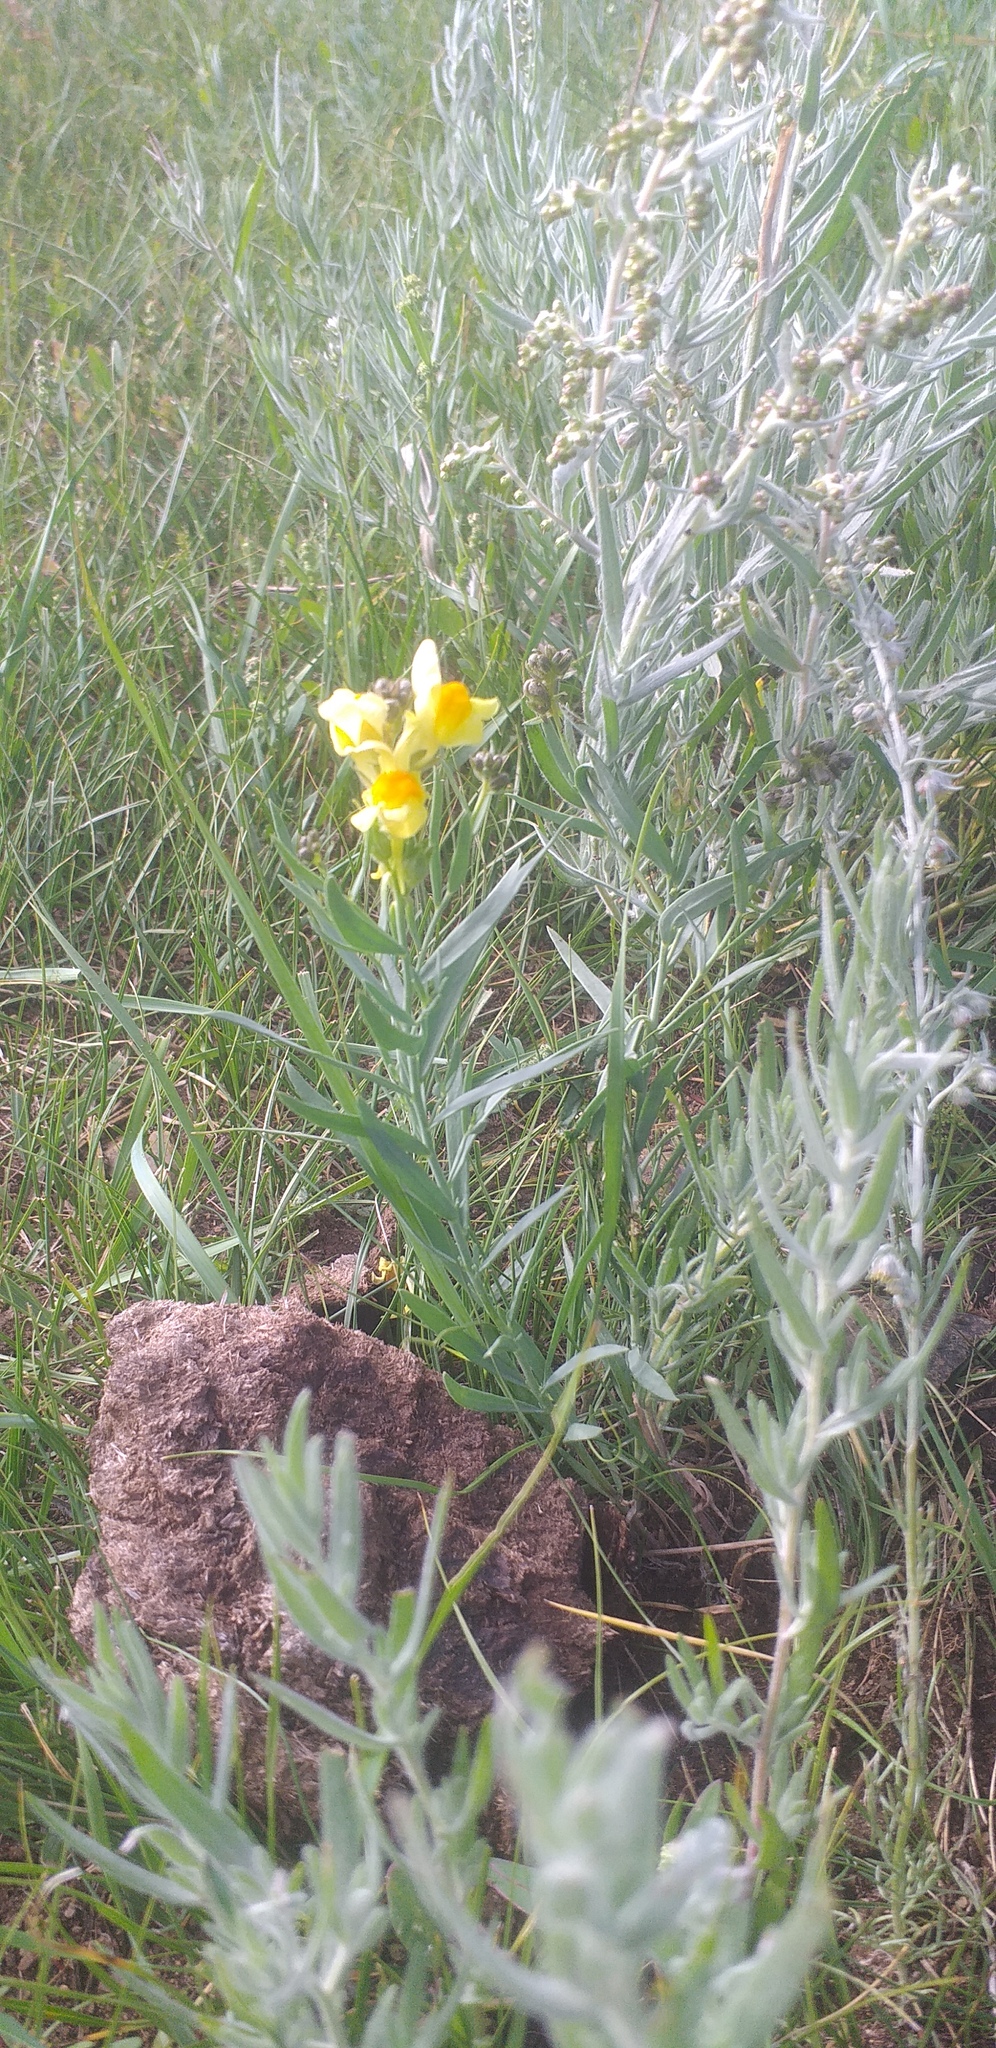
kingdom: Plantae
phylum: Tracheophyta
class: Magnoliopsida
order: Lamiales
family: Plantaginaceae
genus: Linaria
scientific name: Linaria buriatica
